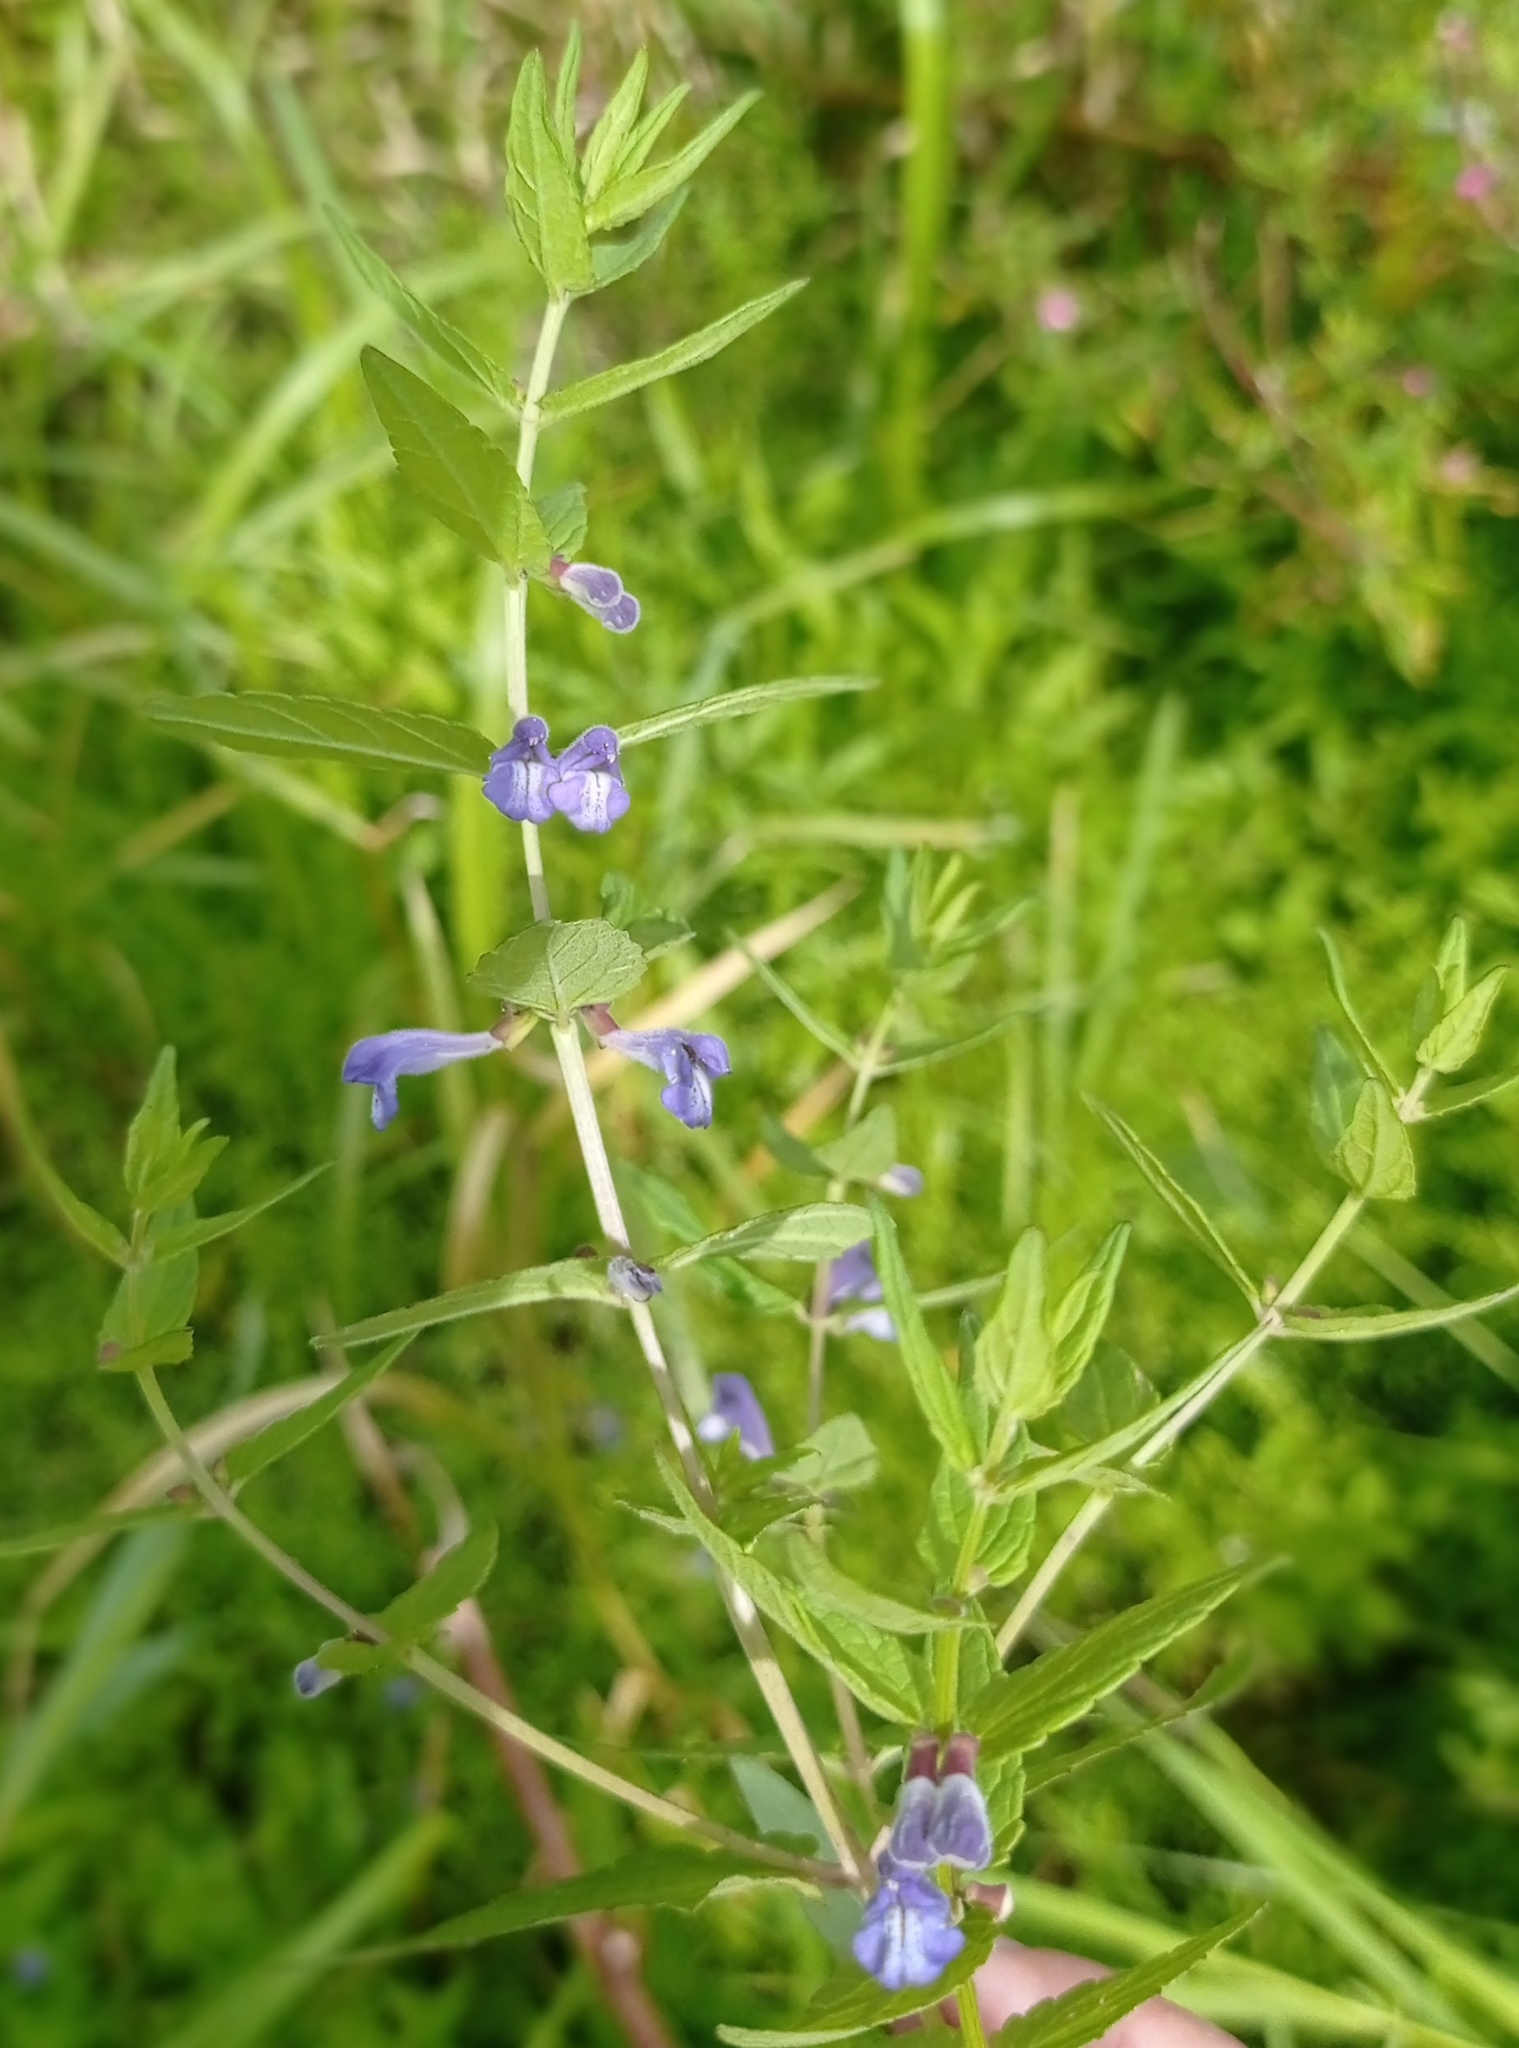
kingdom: Plantae
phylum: Tracheophyta
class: Magnoliopsida
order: Lamiales
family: Lamiaceae
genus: Scutellaria
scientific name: Scutellaria galericulata
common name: Skullcap
